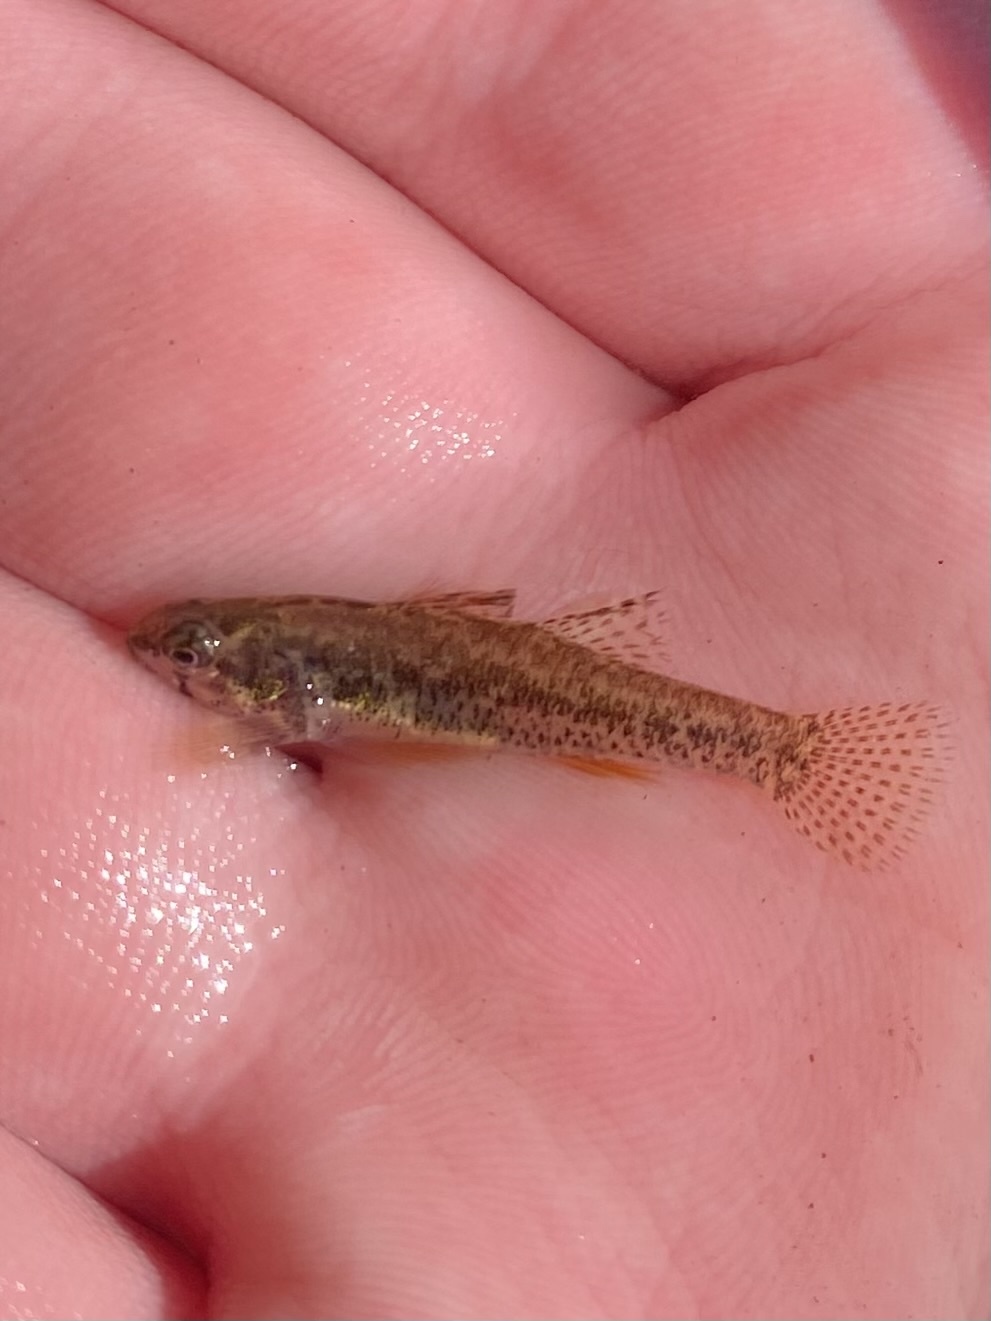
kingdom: Animalia
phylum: Chordata
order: Perciformes
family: Percidae
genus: Etheostoma
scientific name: Etheostoma microperca
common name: Least darter
